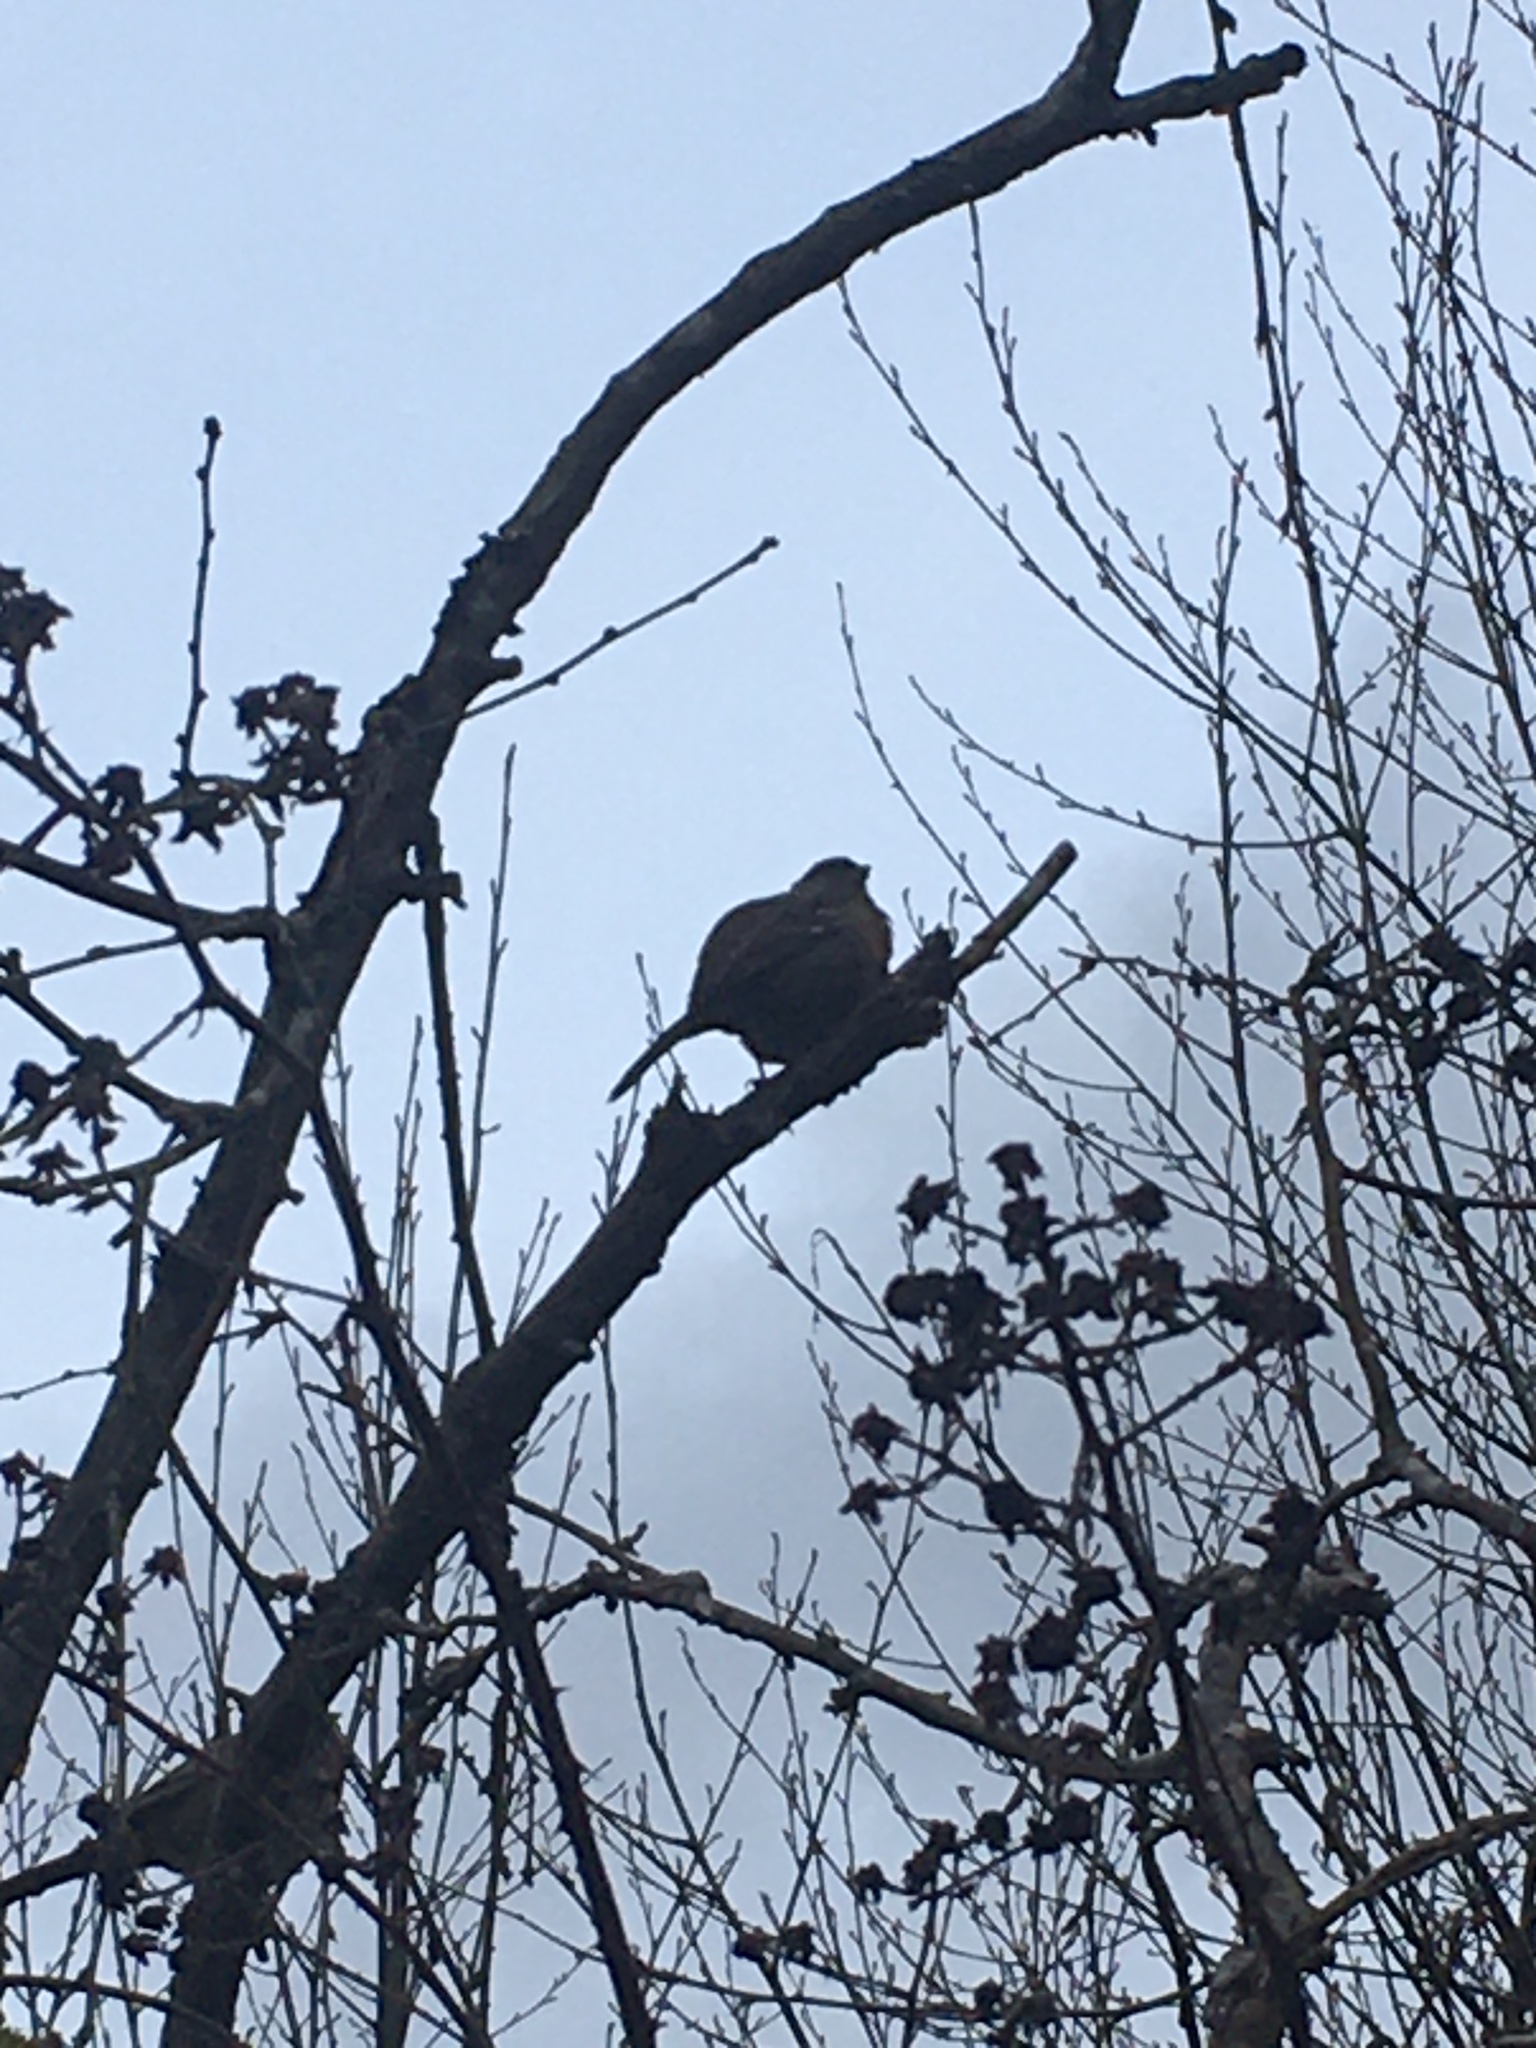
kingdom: Animalia
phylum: Chordata
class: Aves
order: Passeriformes
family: Passerellidae
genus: Zonotrichia
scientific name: Zonotrichia atricapilla
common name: Golden-crowned sparrow
